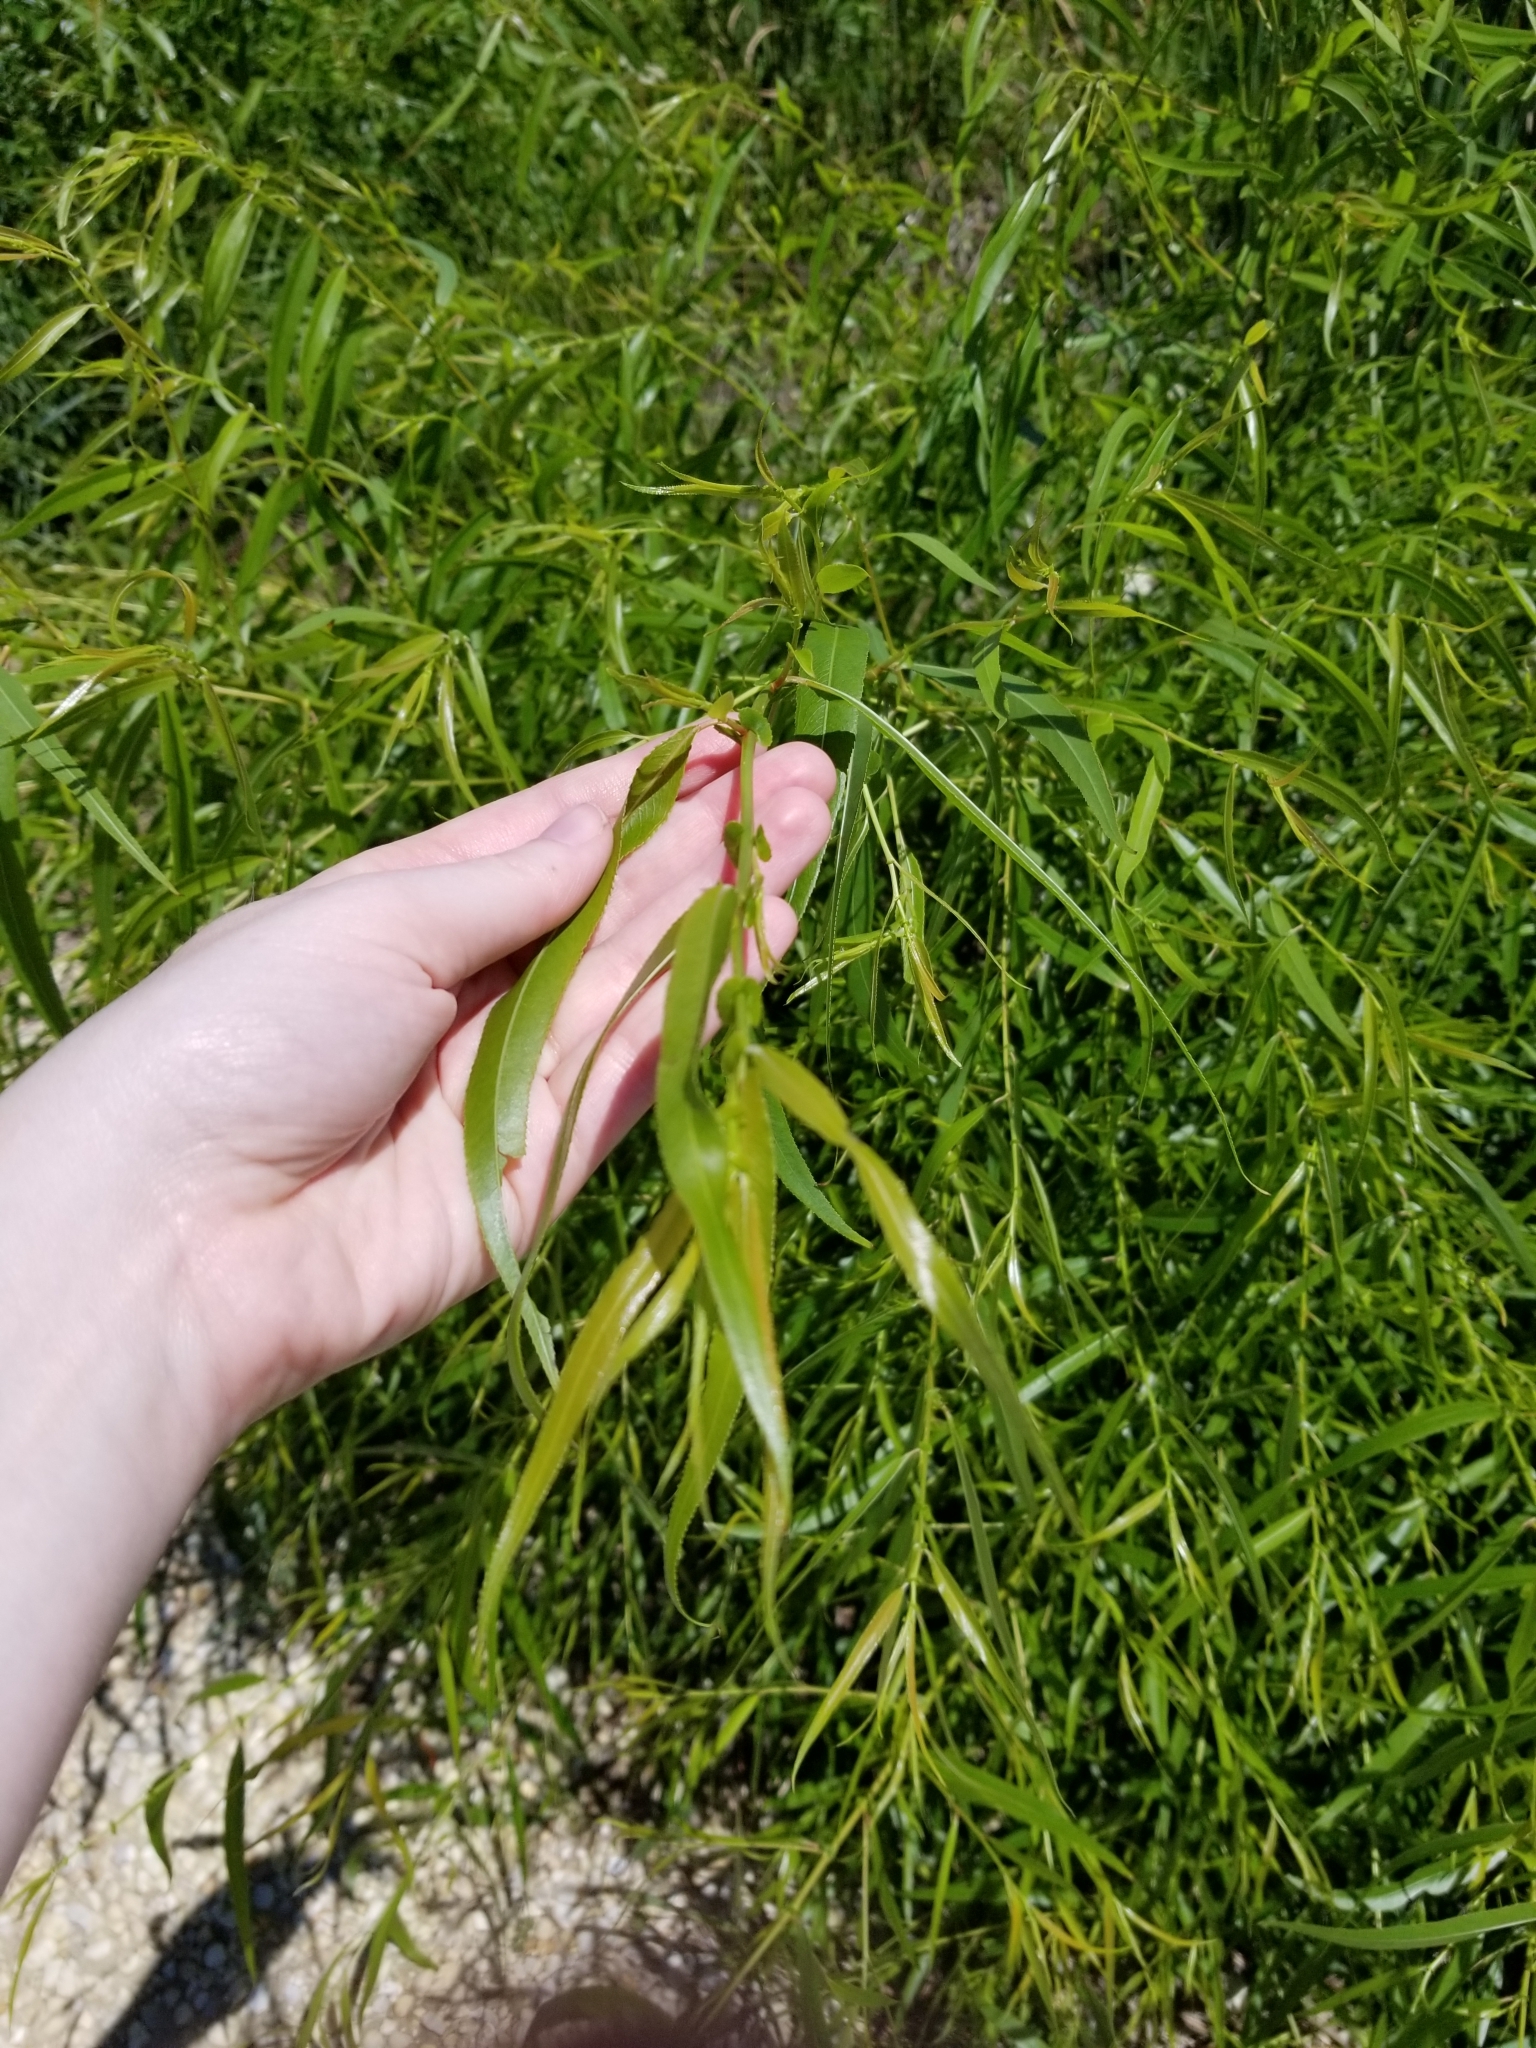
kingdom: Plantae
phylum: Tracheophyta
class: Magnoliopsida
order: Malpighiales
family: Salicaceae
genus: Salix
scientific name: Salix nigra
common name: Black willow
